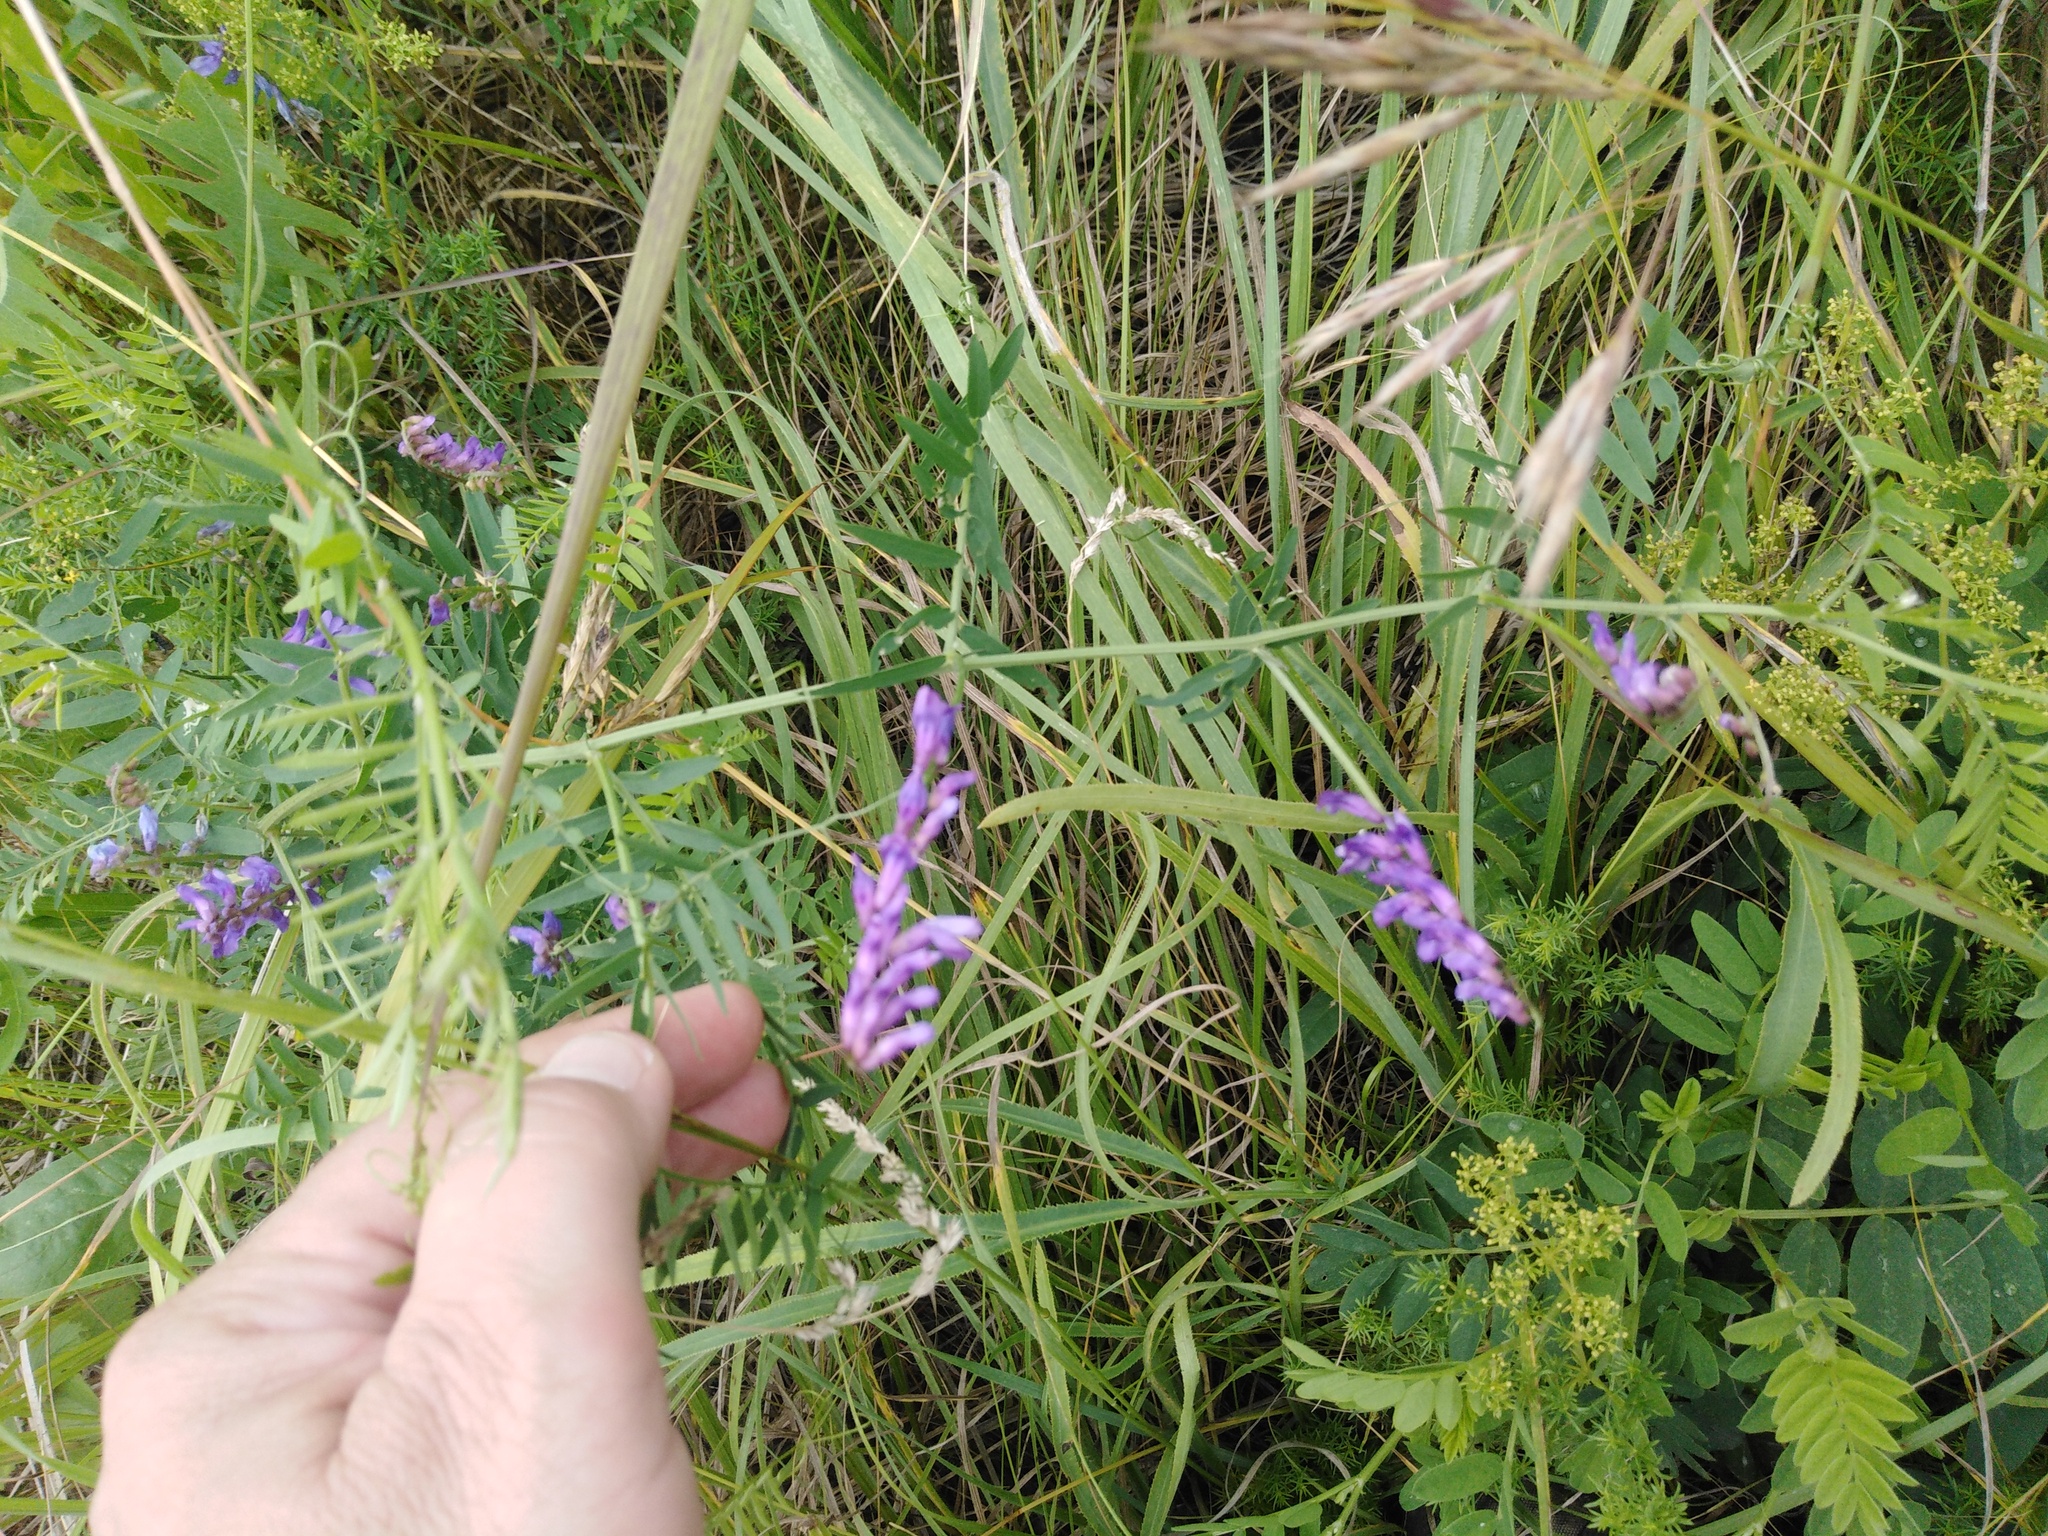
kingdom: Plantae
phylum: Tracheophyta
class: Magnoliopsida
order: Fabales
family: Fabaceae
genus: Vicia
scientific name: Vicia cracca
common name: Bird vetch
